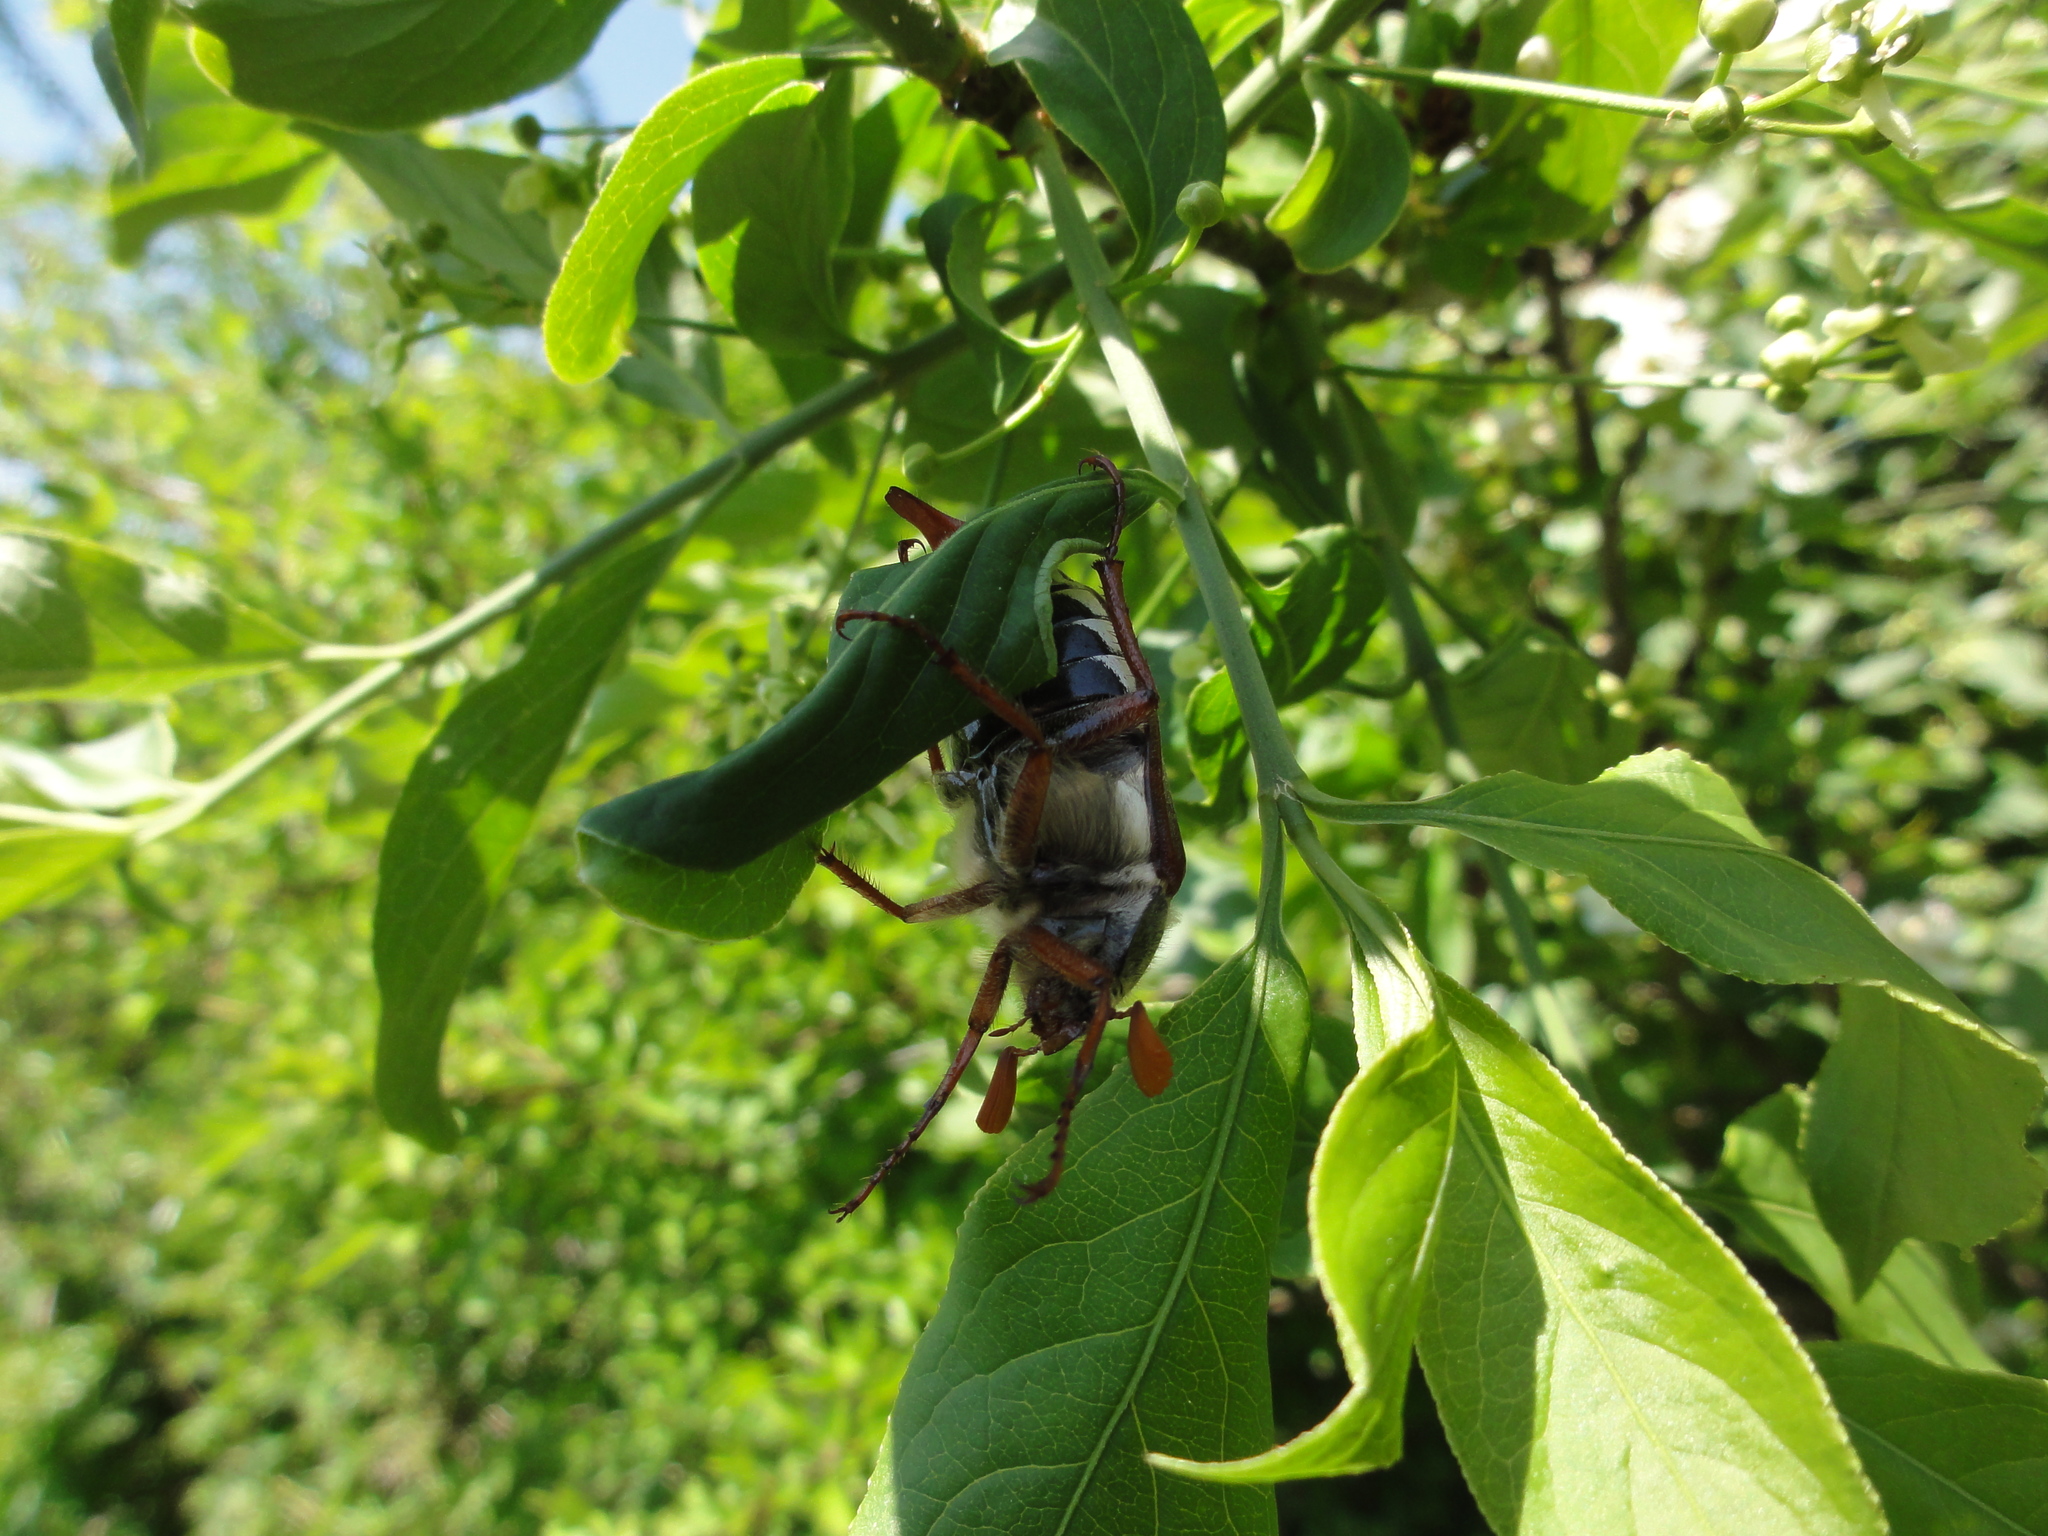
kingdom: Animalia
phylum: Arthropoda
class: Insecta
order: Coleoptera
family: Scarabaeidae
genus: Melolontha
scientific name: Melolontha melolontha
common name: Cockchafer maybeetle
